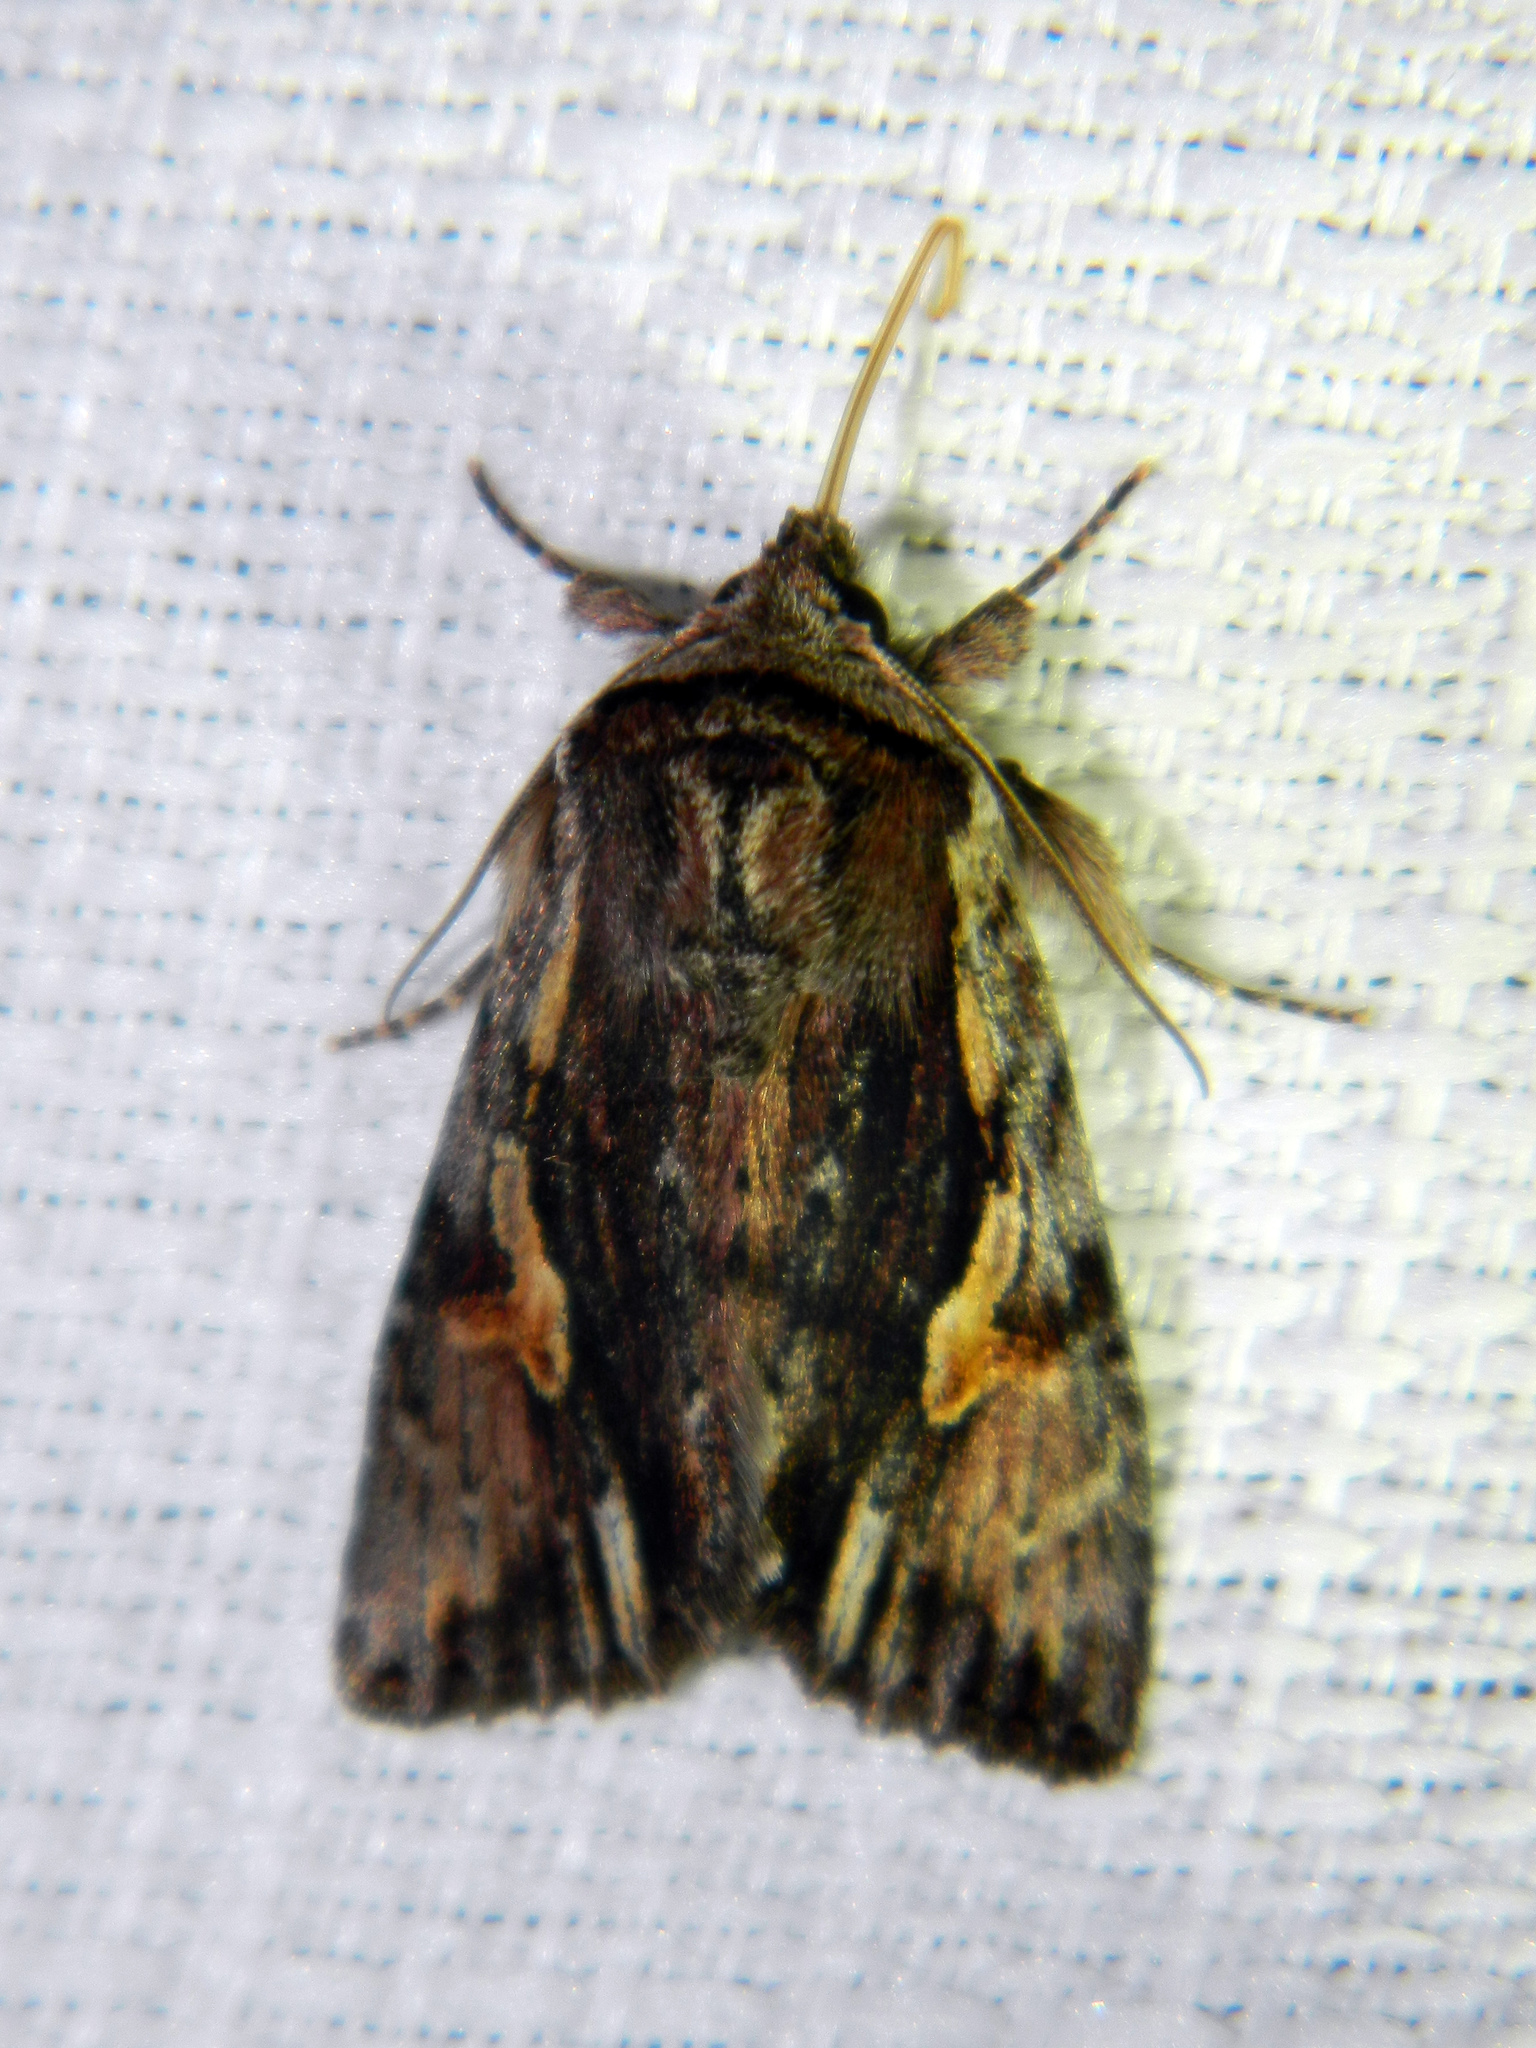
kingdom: Animalia
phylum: Arthropoda
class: Insecta
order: Lepidoptera
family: Noctuidae
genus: Achatia
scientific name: Achatia evicta
